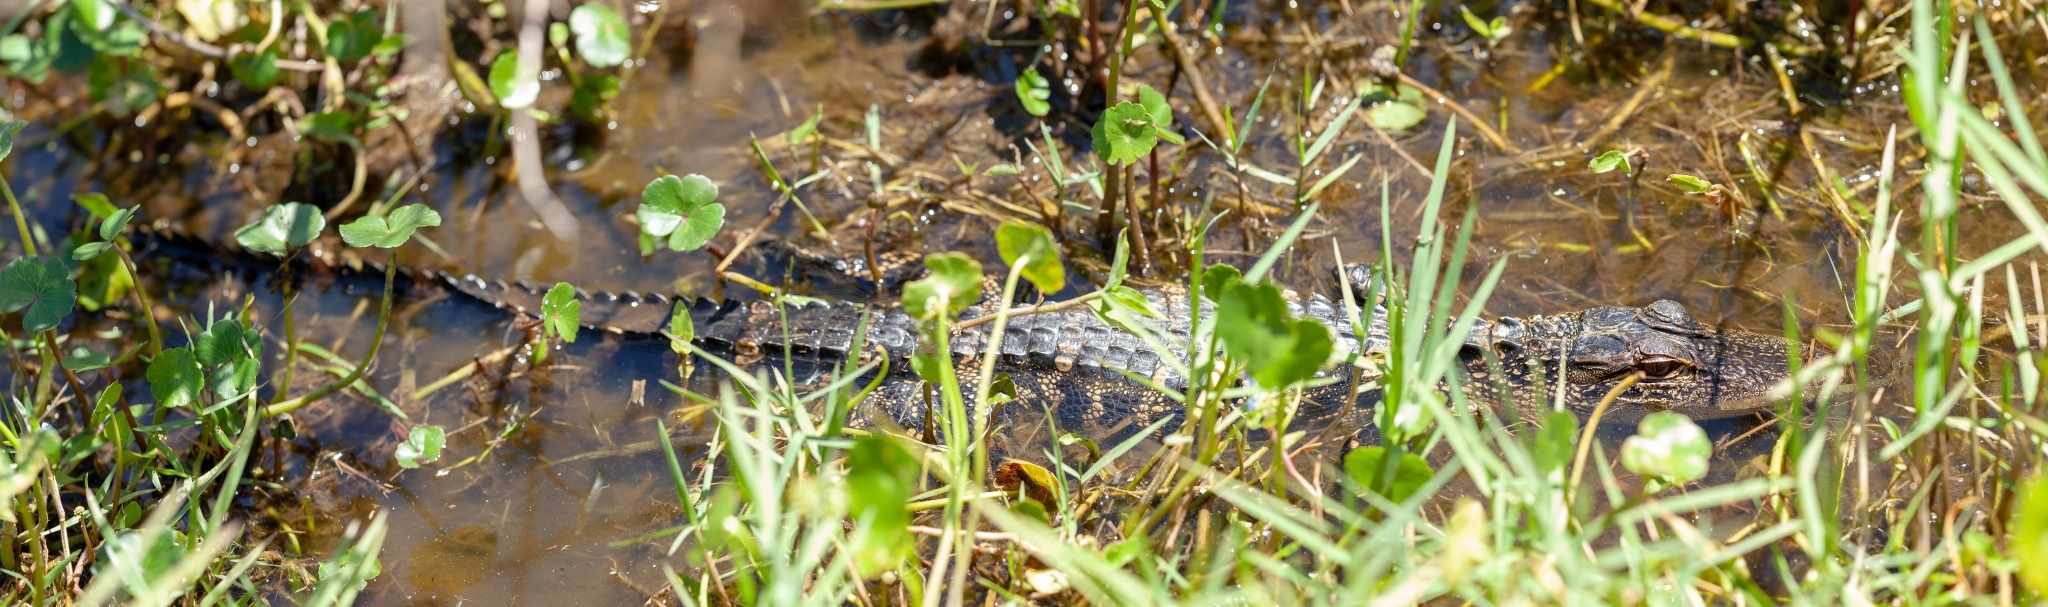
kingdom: Animalia
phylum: Chordata
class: Crocodylia
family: Alligatoridae
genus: Alligator
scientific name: Alligator mississippiensis
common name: American alligator
